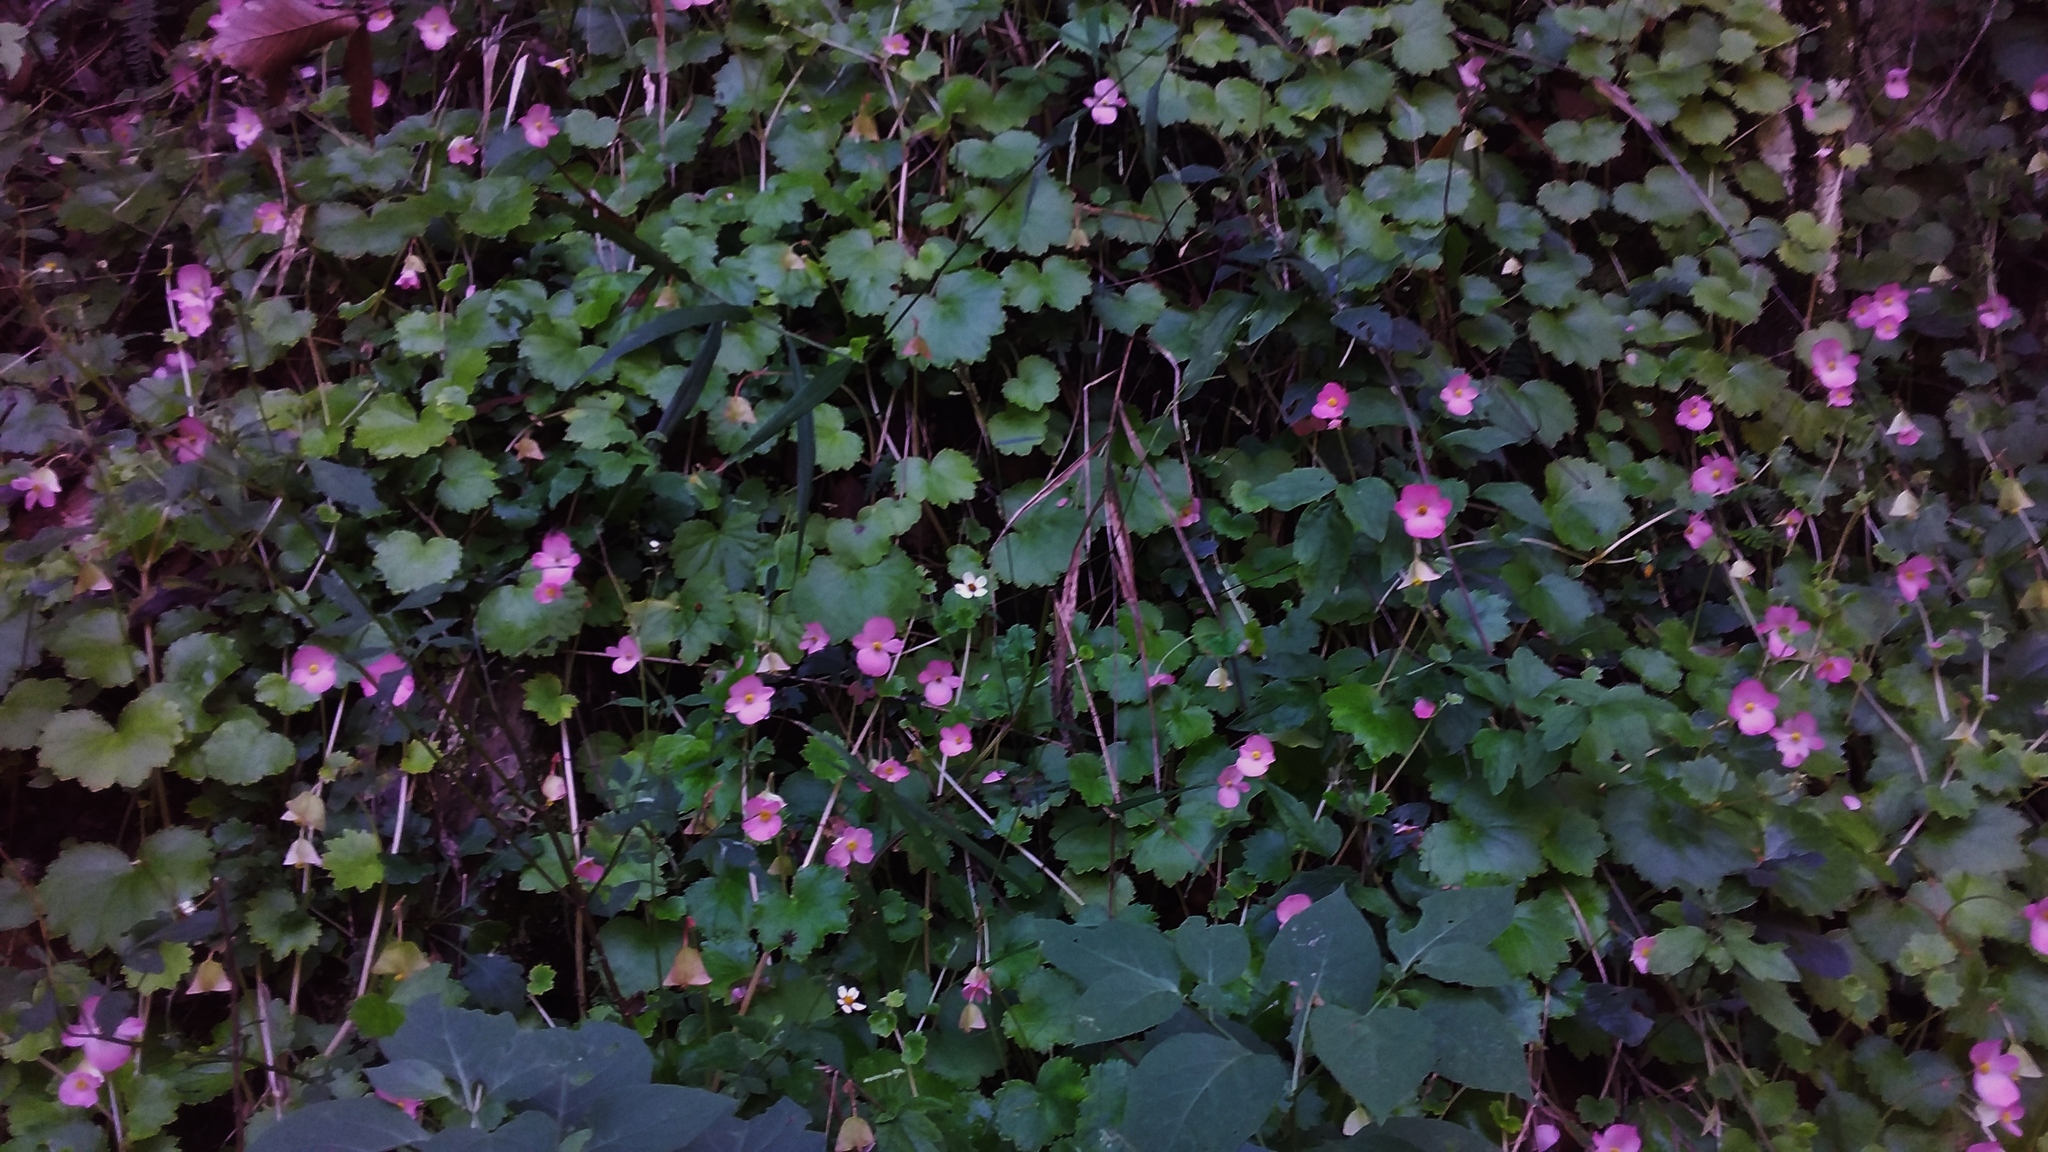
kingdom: Plantae
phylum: Tracheophyta
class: Magnoliopsida
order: Cucurbitales
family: Begoniaceae
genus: Begonia
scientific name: Begonia uniflora
